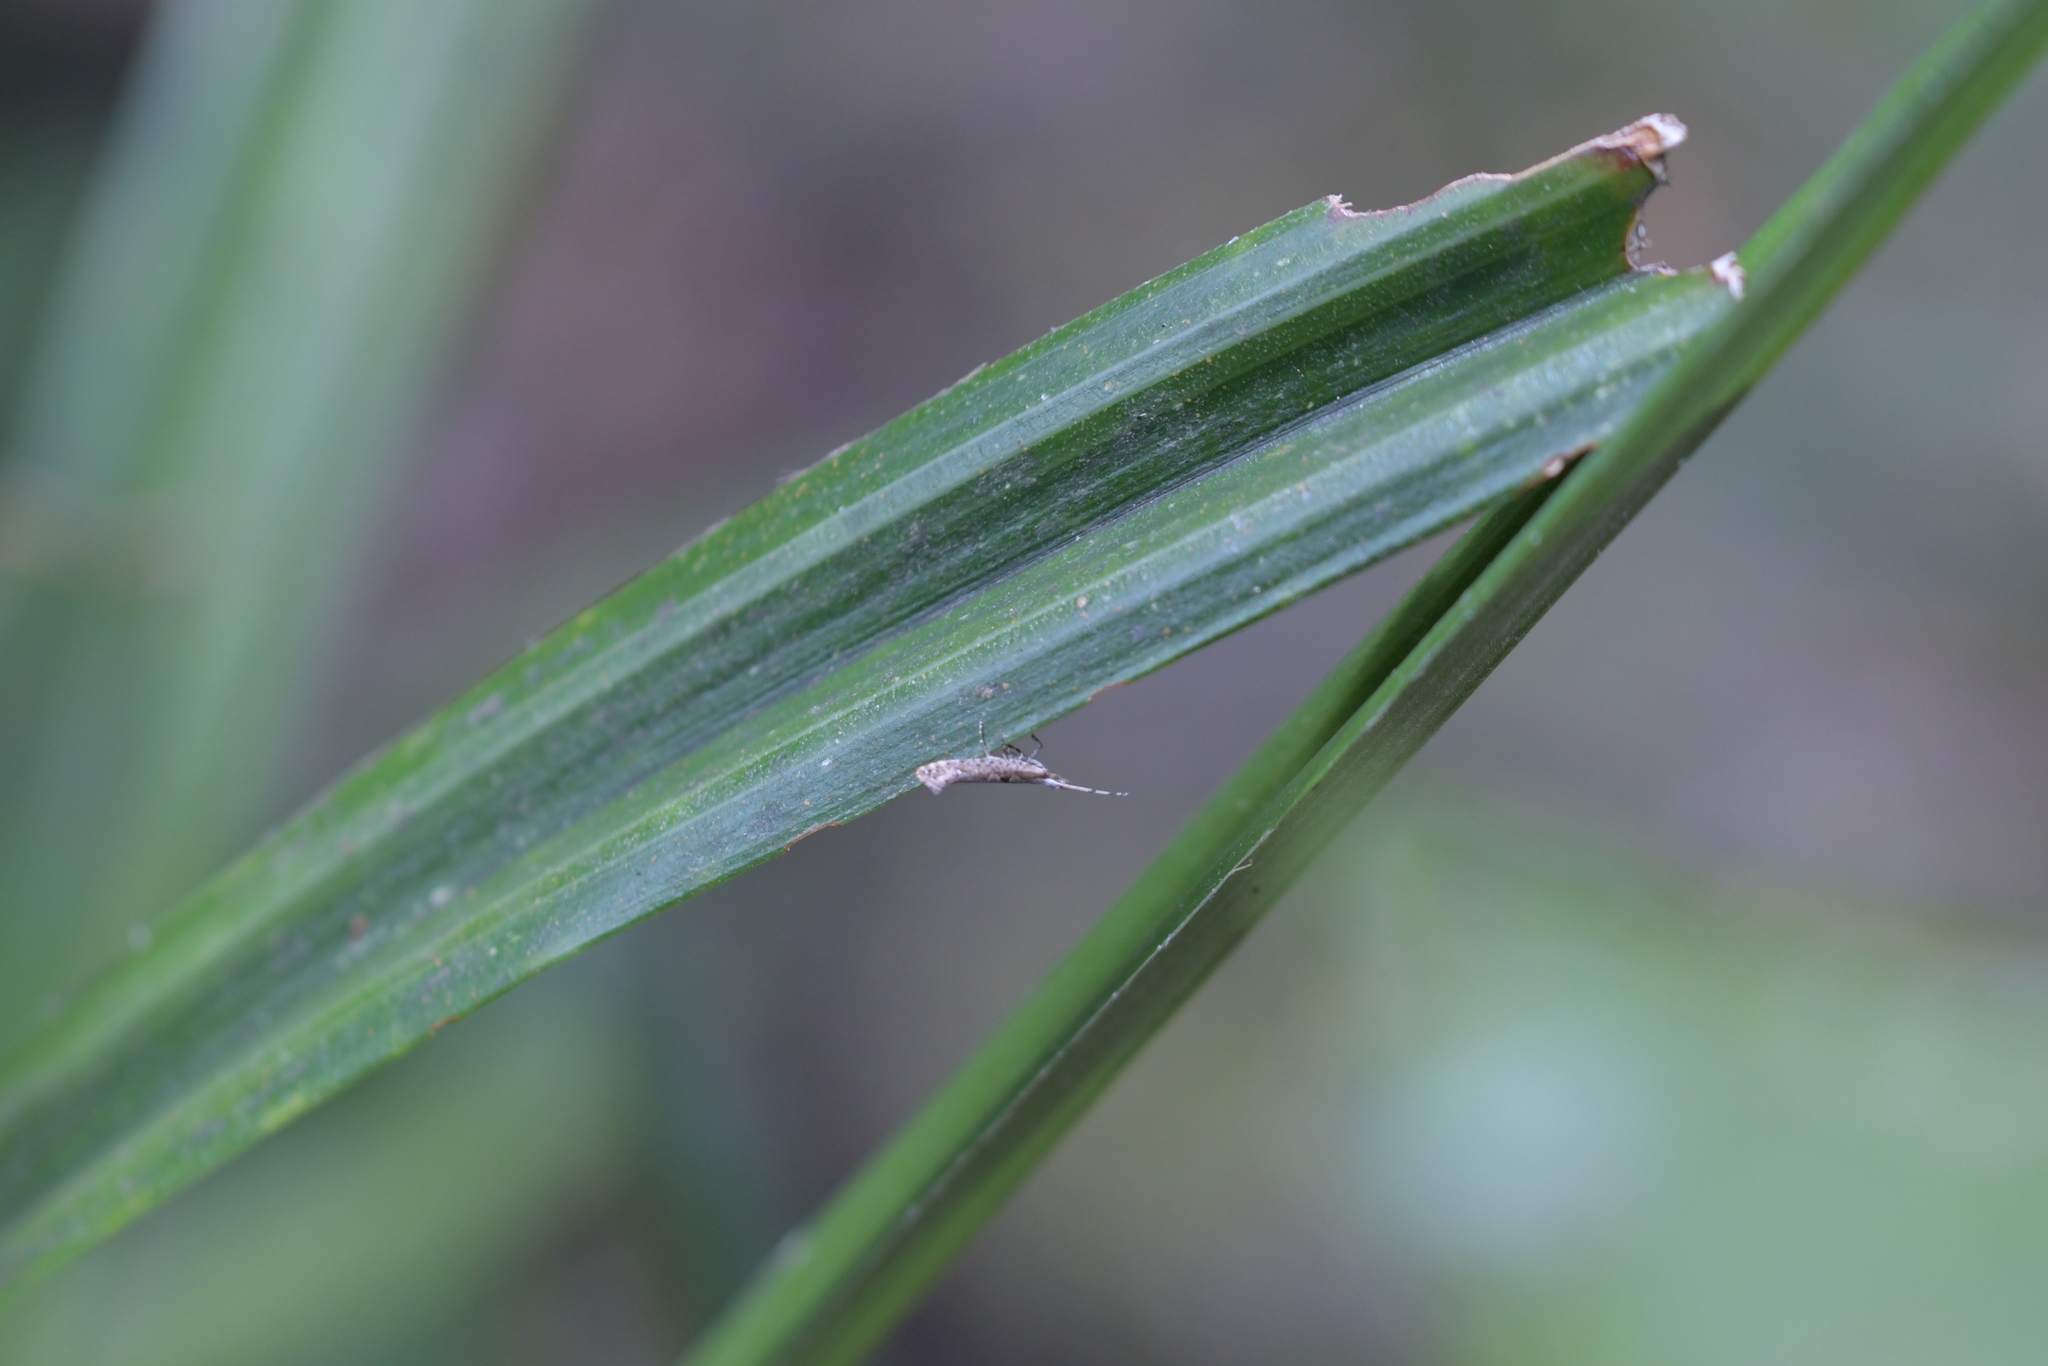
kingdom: Animalia
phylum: Arthropoda
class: Insecta
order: Lepidoptera
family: Plutellidae
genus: Leuroperna
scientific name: Leuroperna sera
